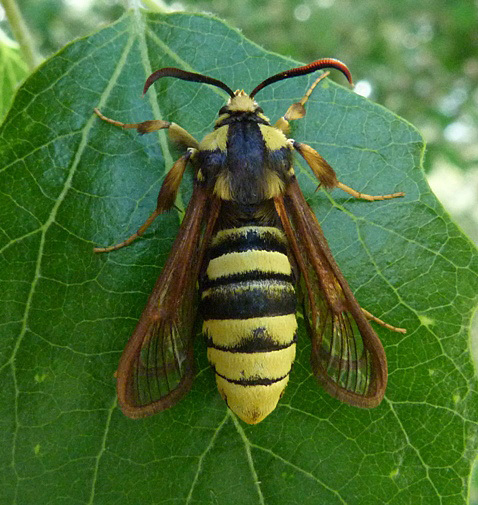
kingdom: Animalia
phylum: Arthropoda
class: Insecta
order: Lepidoptera
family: Sesiidae
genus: Sesia
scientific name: Sesia apiformis
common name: Hornet moth
